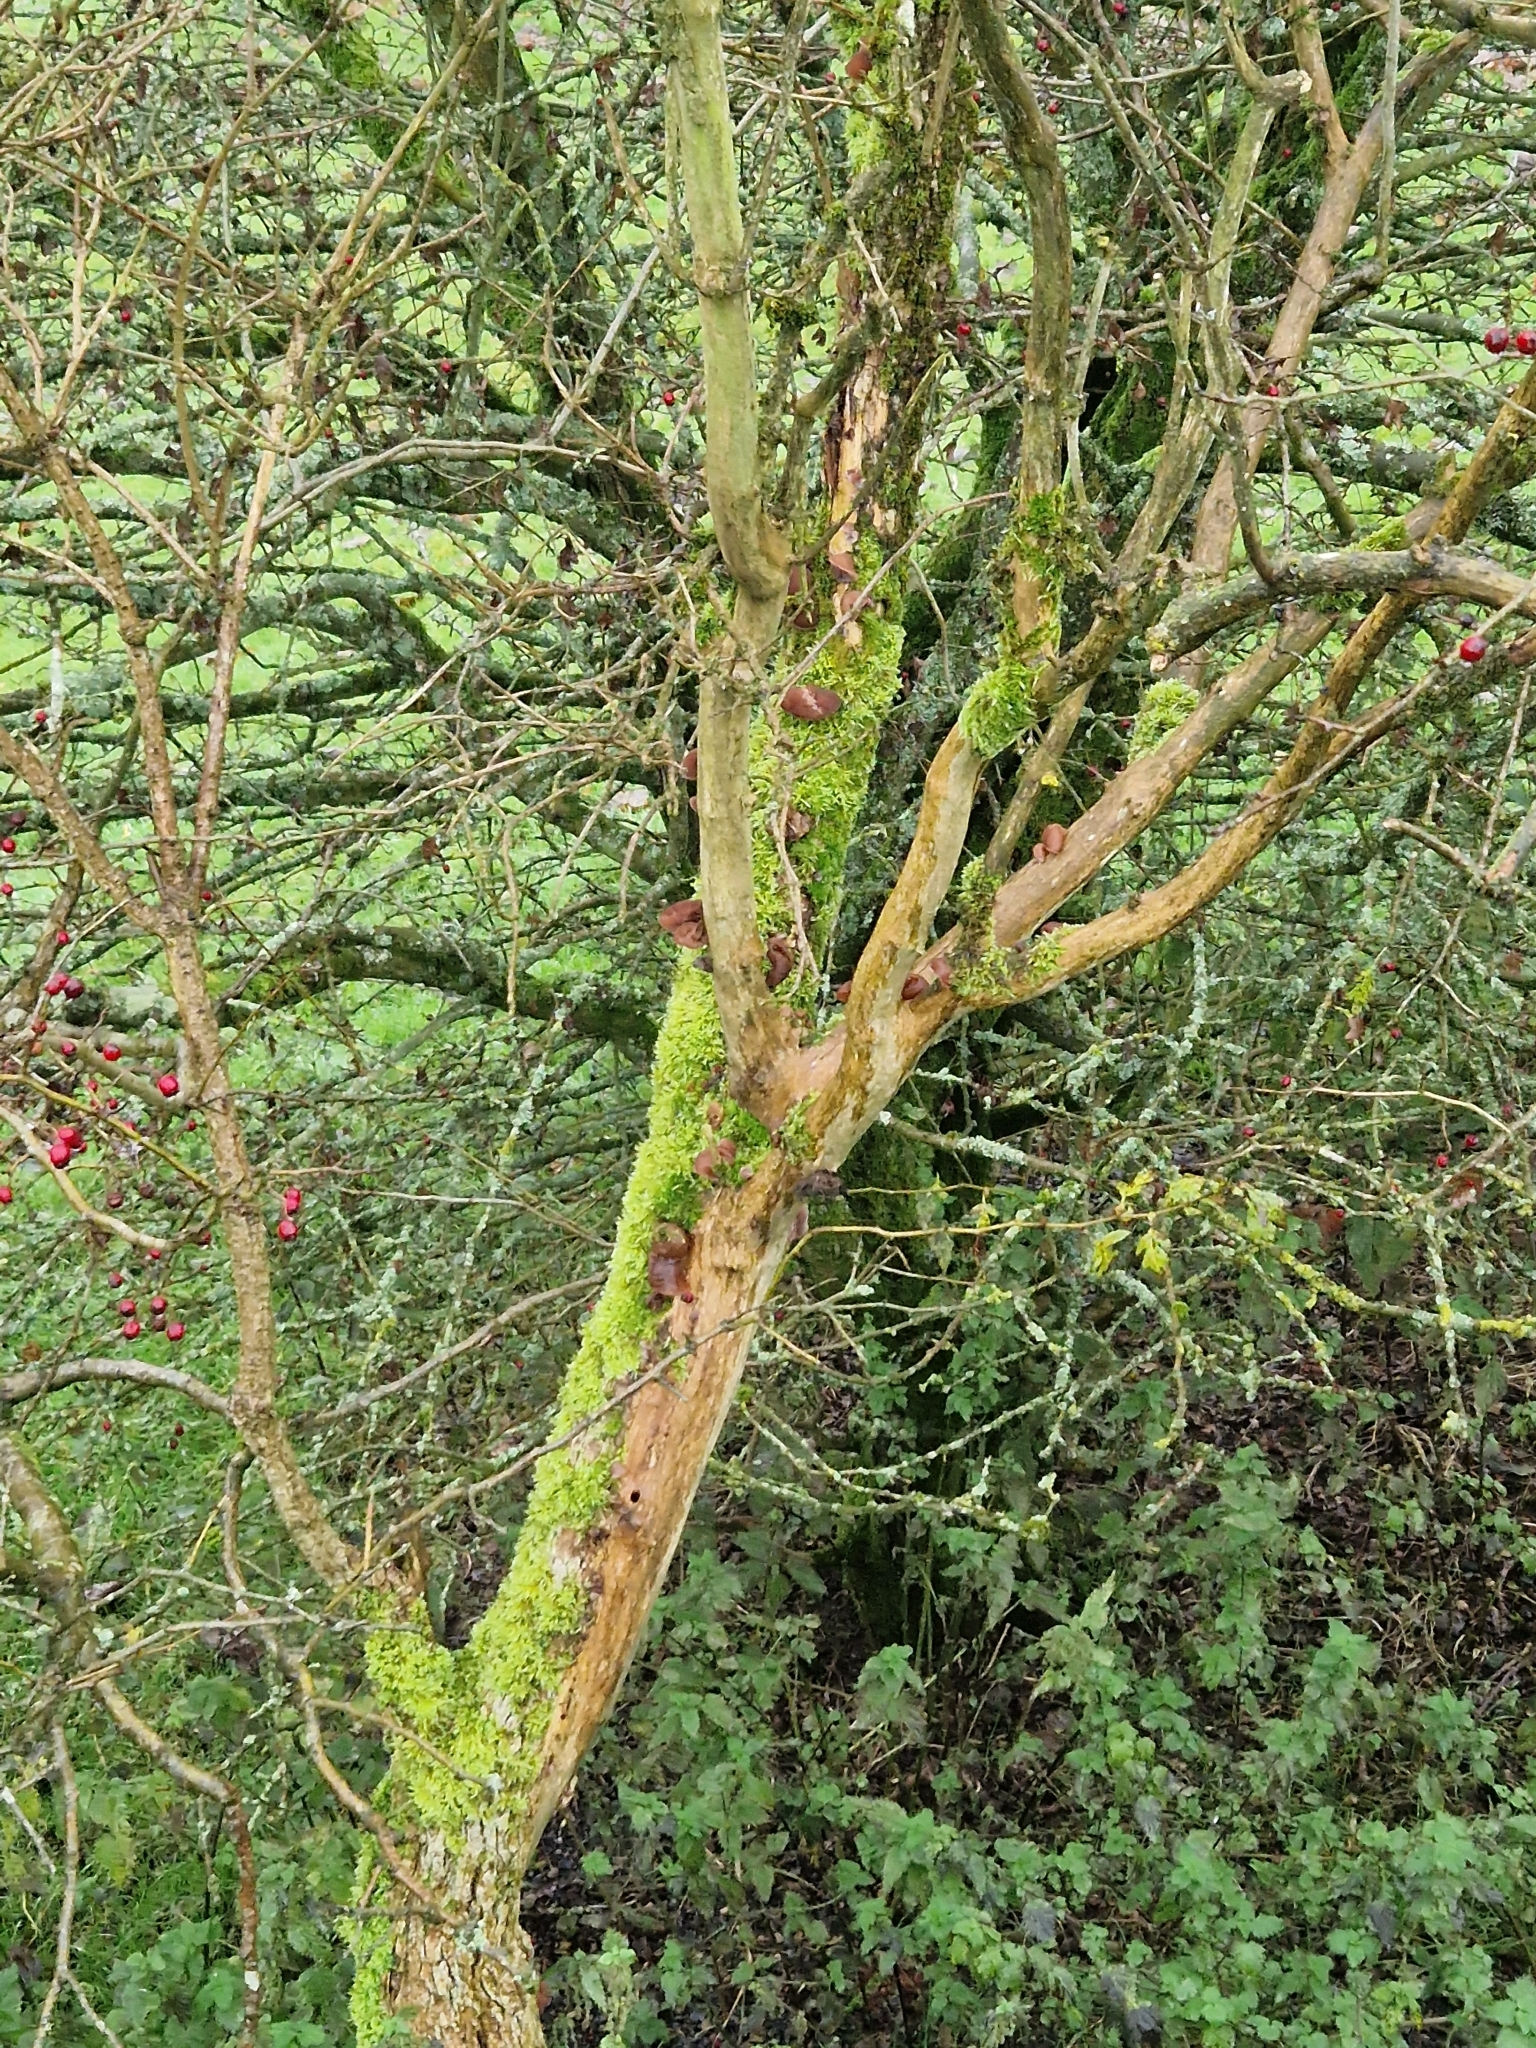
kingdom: Fungi
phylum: Basidiomycota
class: Agaricomycetes
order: Auriculariales
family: Auriculariaceae
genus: Auricularia
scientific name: Auricularia auricula-judae
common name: Jelly ear
